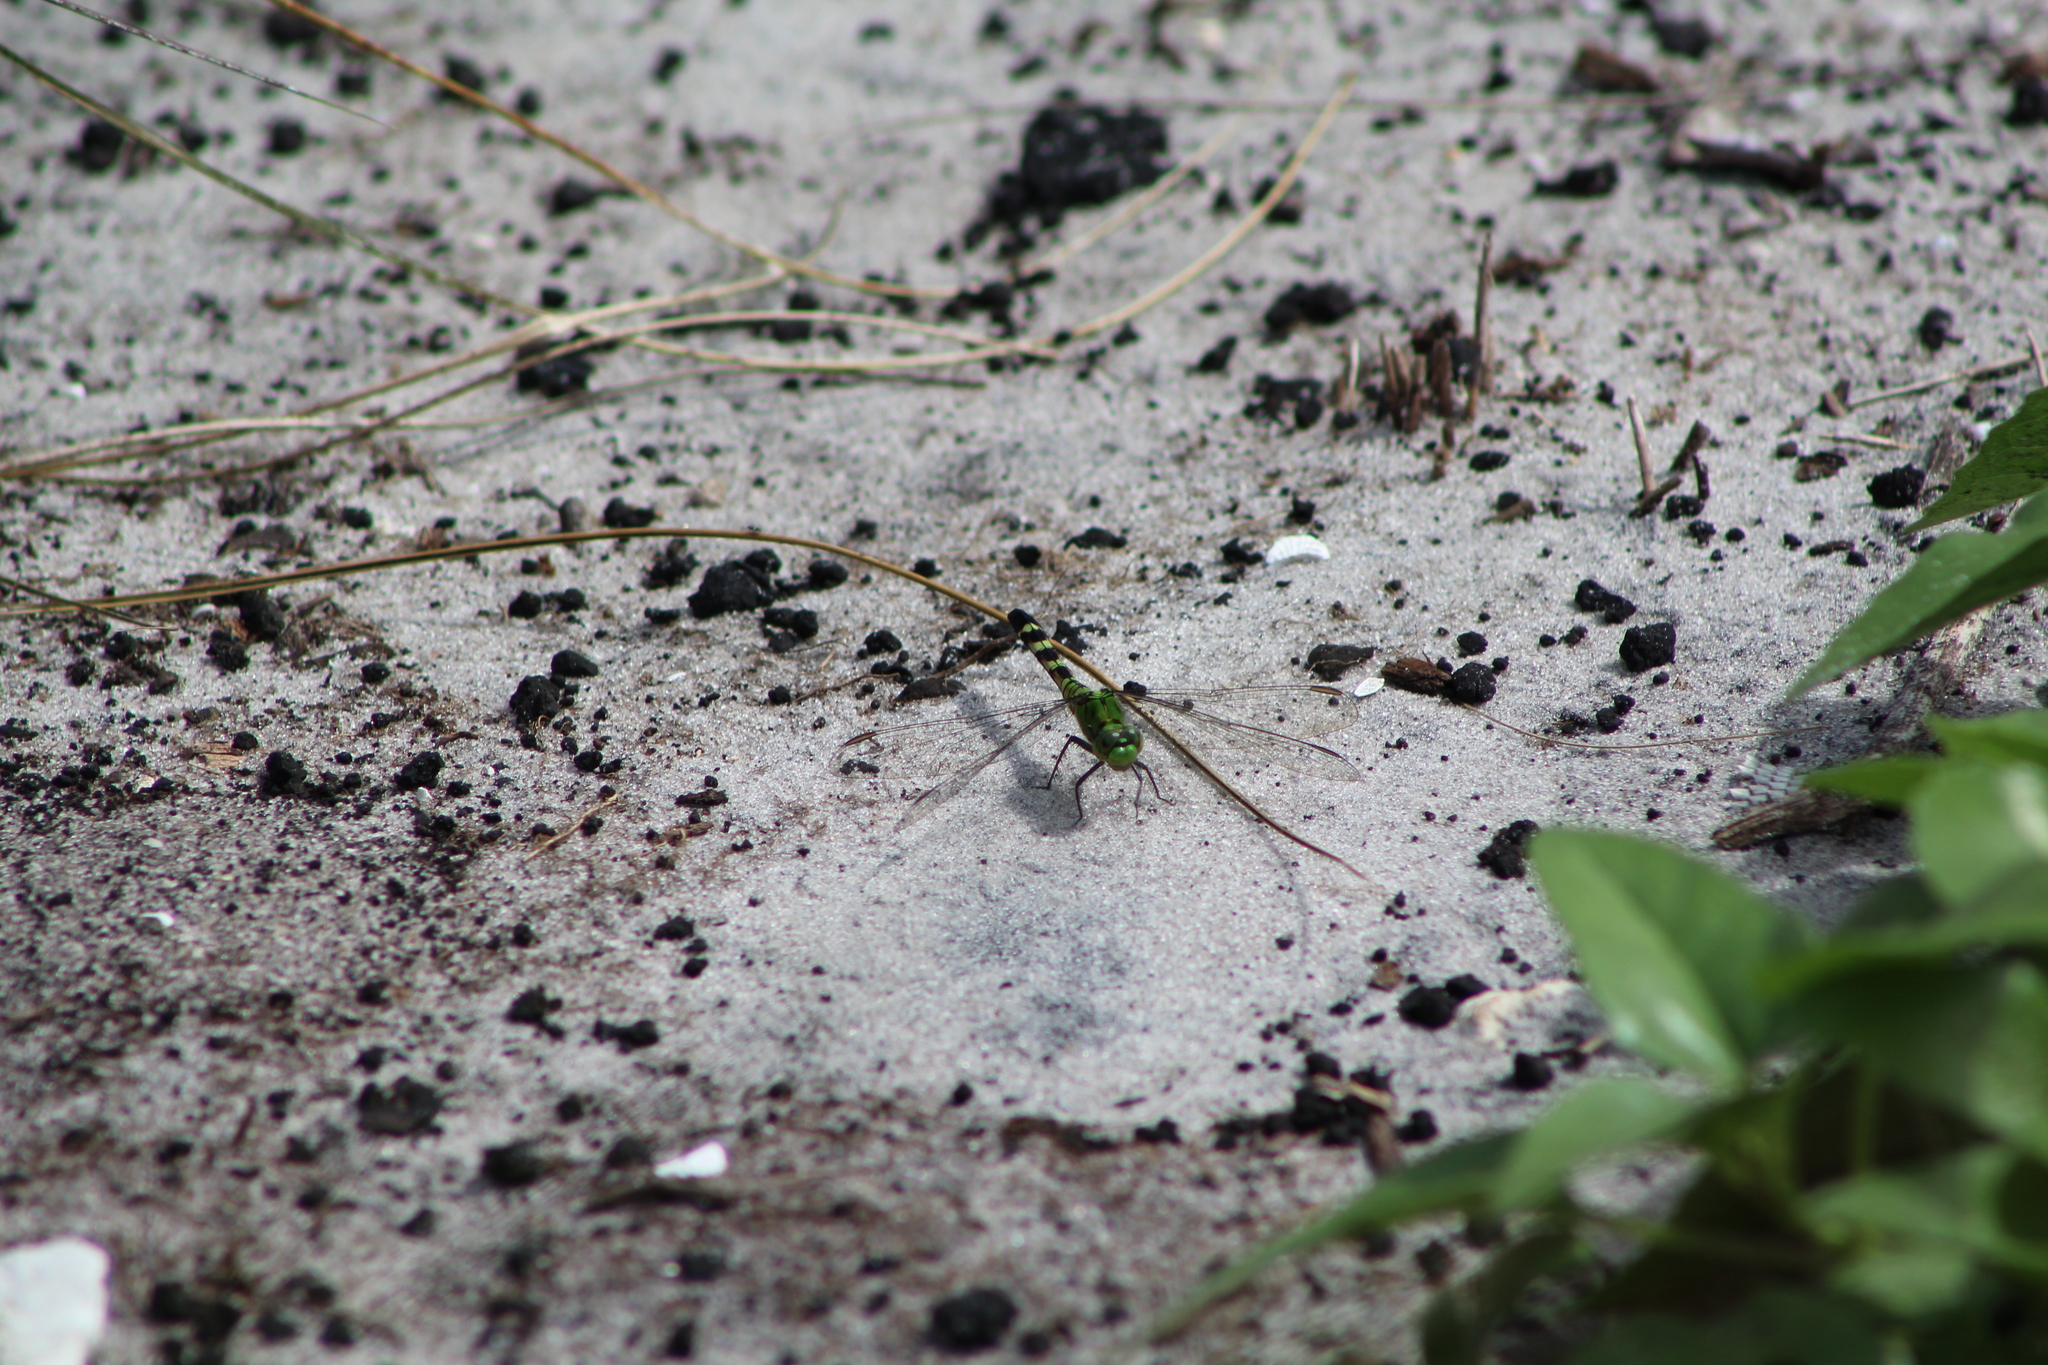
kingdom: Animalia
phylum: Arthropoda
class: Insecta
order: Odonata
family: Libellulidae
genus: Erythemis
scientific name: Erythemis simplicicollis
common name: Eastern pondhawk
